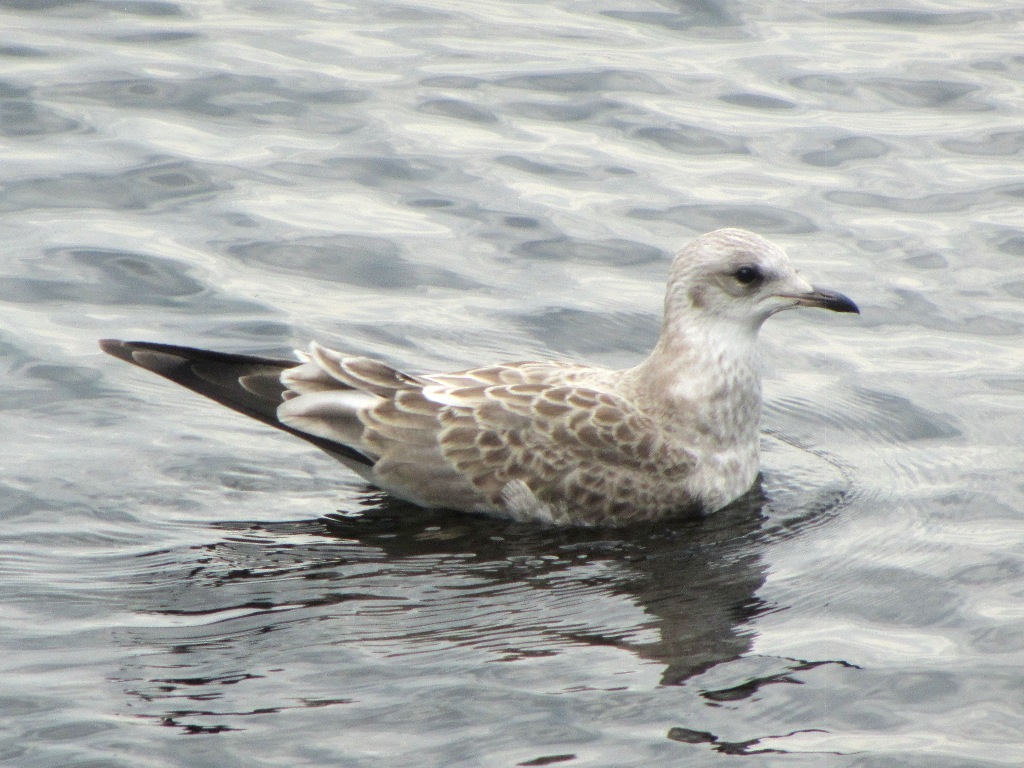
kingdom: Animalia
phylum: Chordata
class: Aves
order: Charadriiformes
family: Laridae
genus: Larus
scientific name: Larus canus
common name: Mew gull
